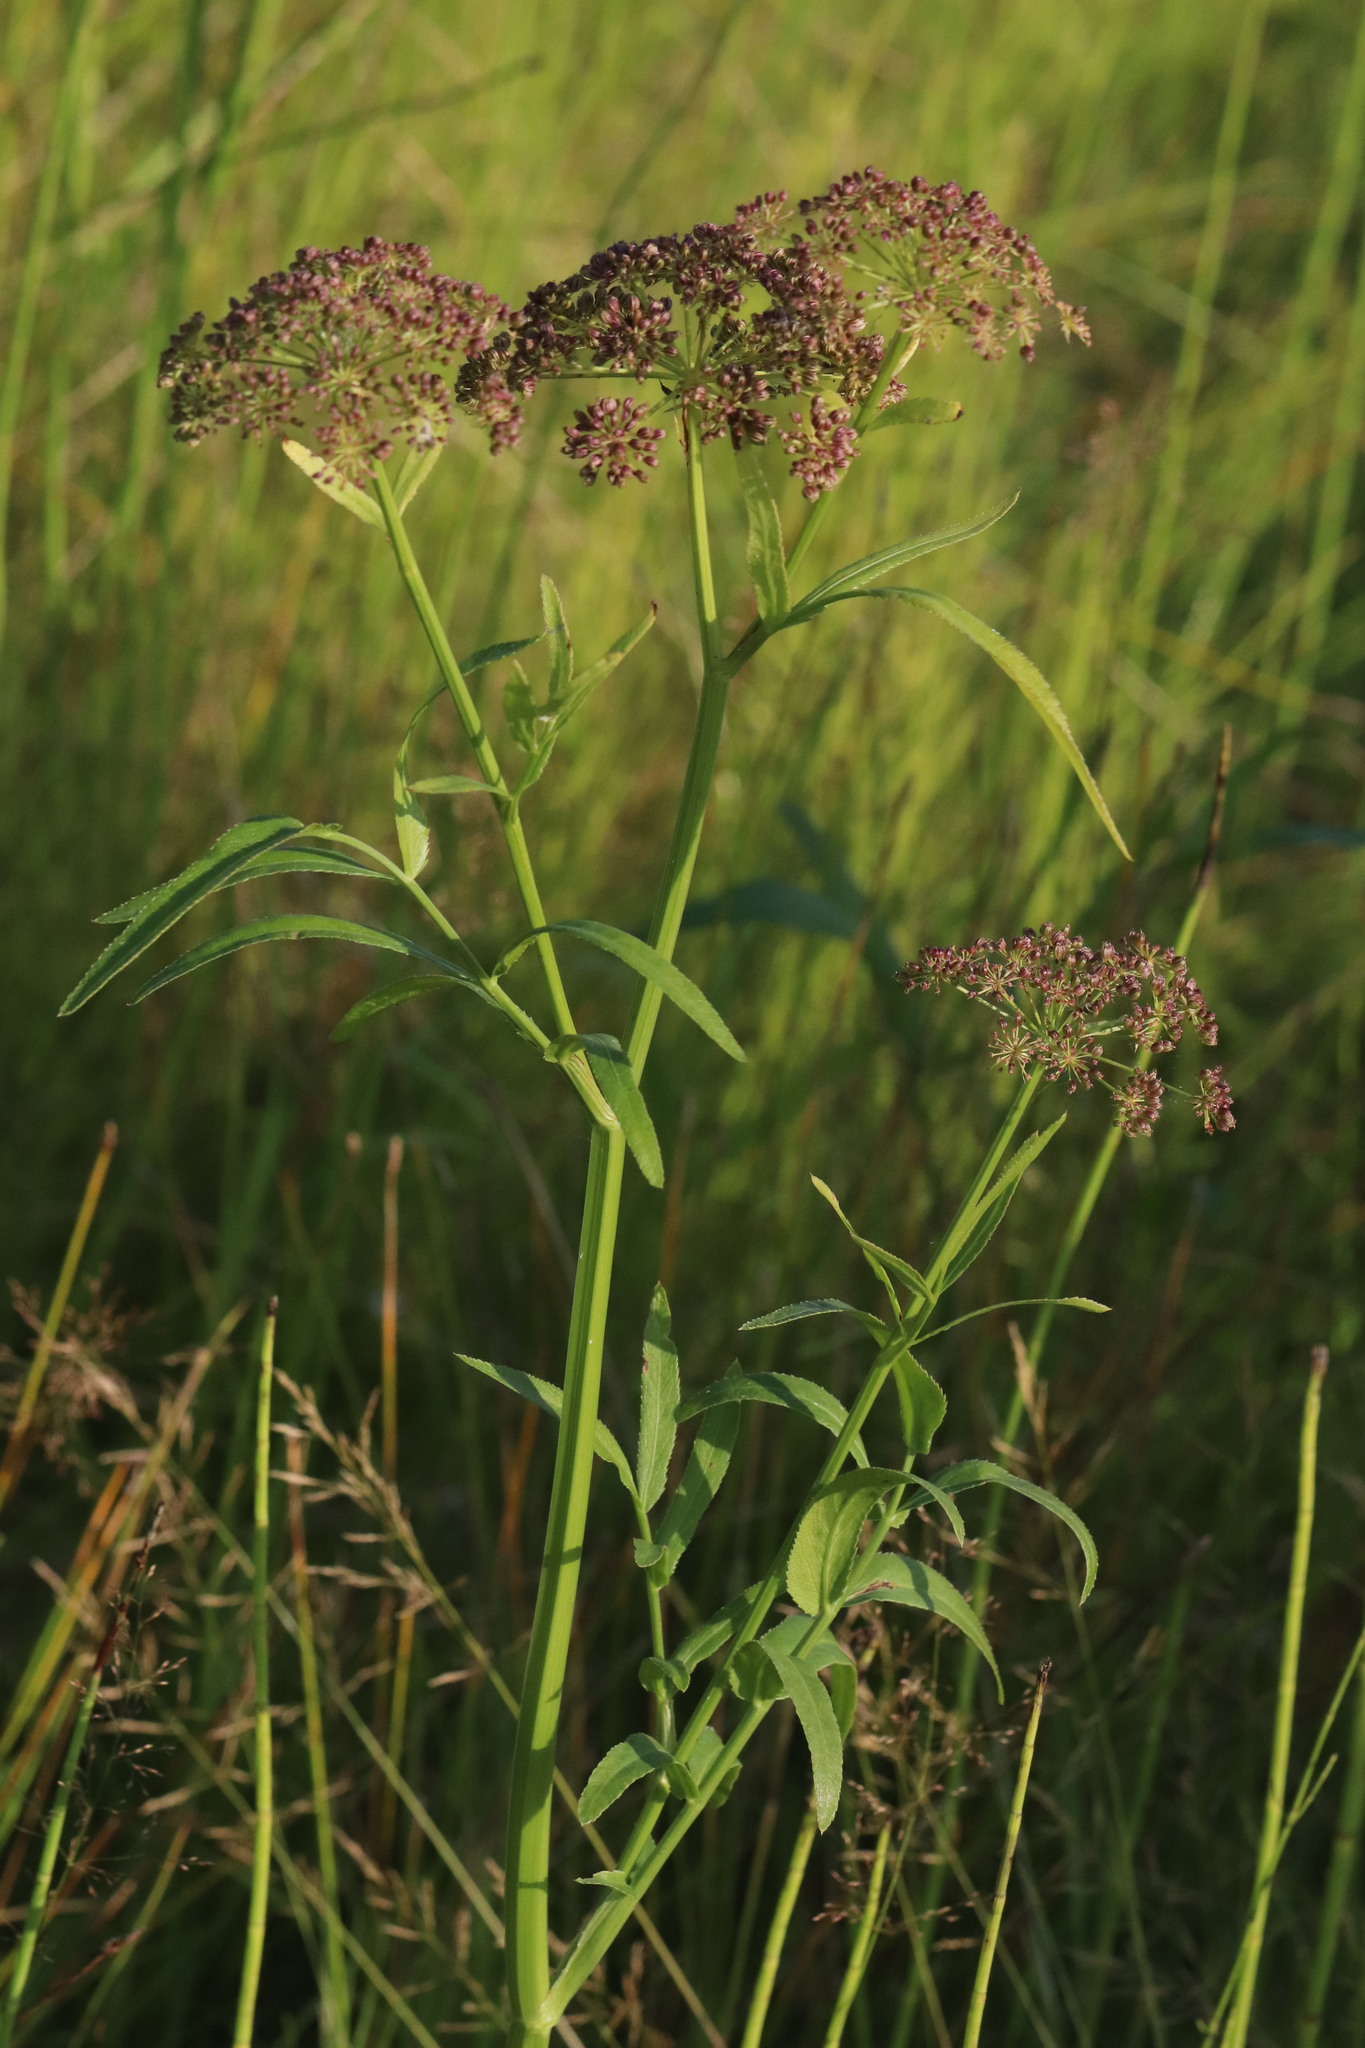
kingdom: Plantae
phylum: Tracheophyta
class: Magnoliopsida
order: Apiales
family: Apiaceae
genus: Sium
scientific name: Sium latifolium
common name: Greater water-parsnip
